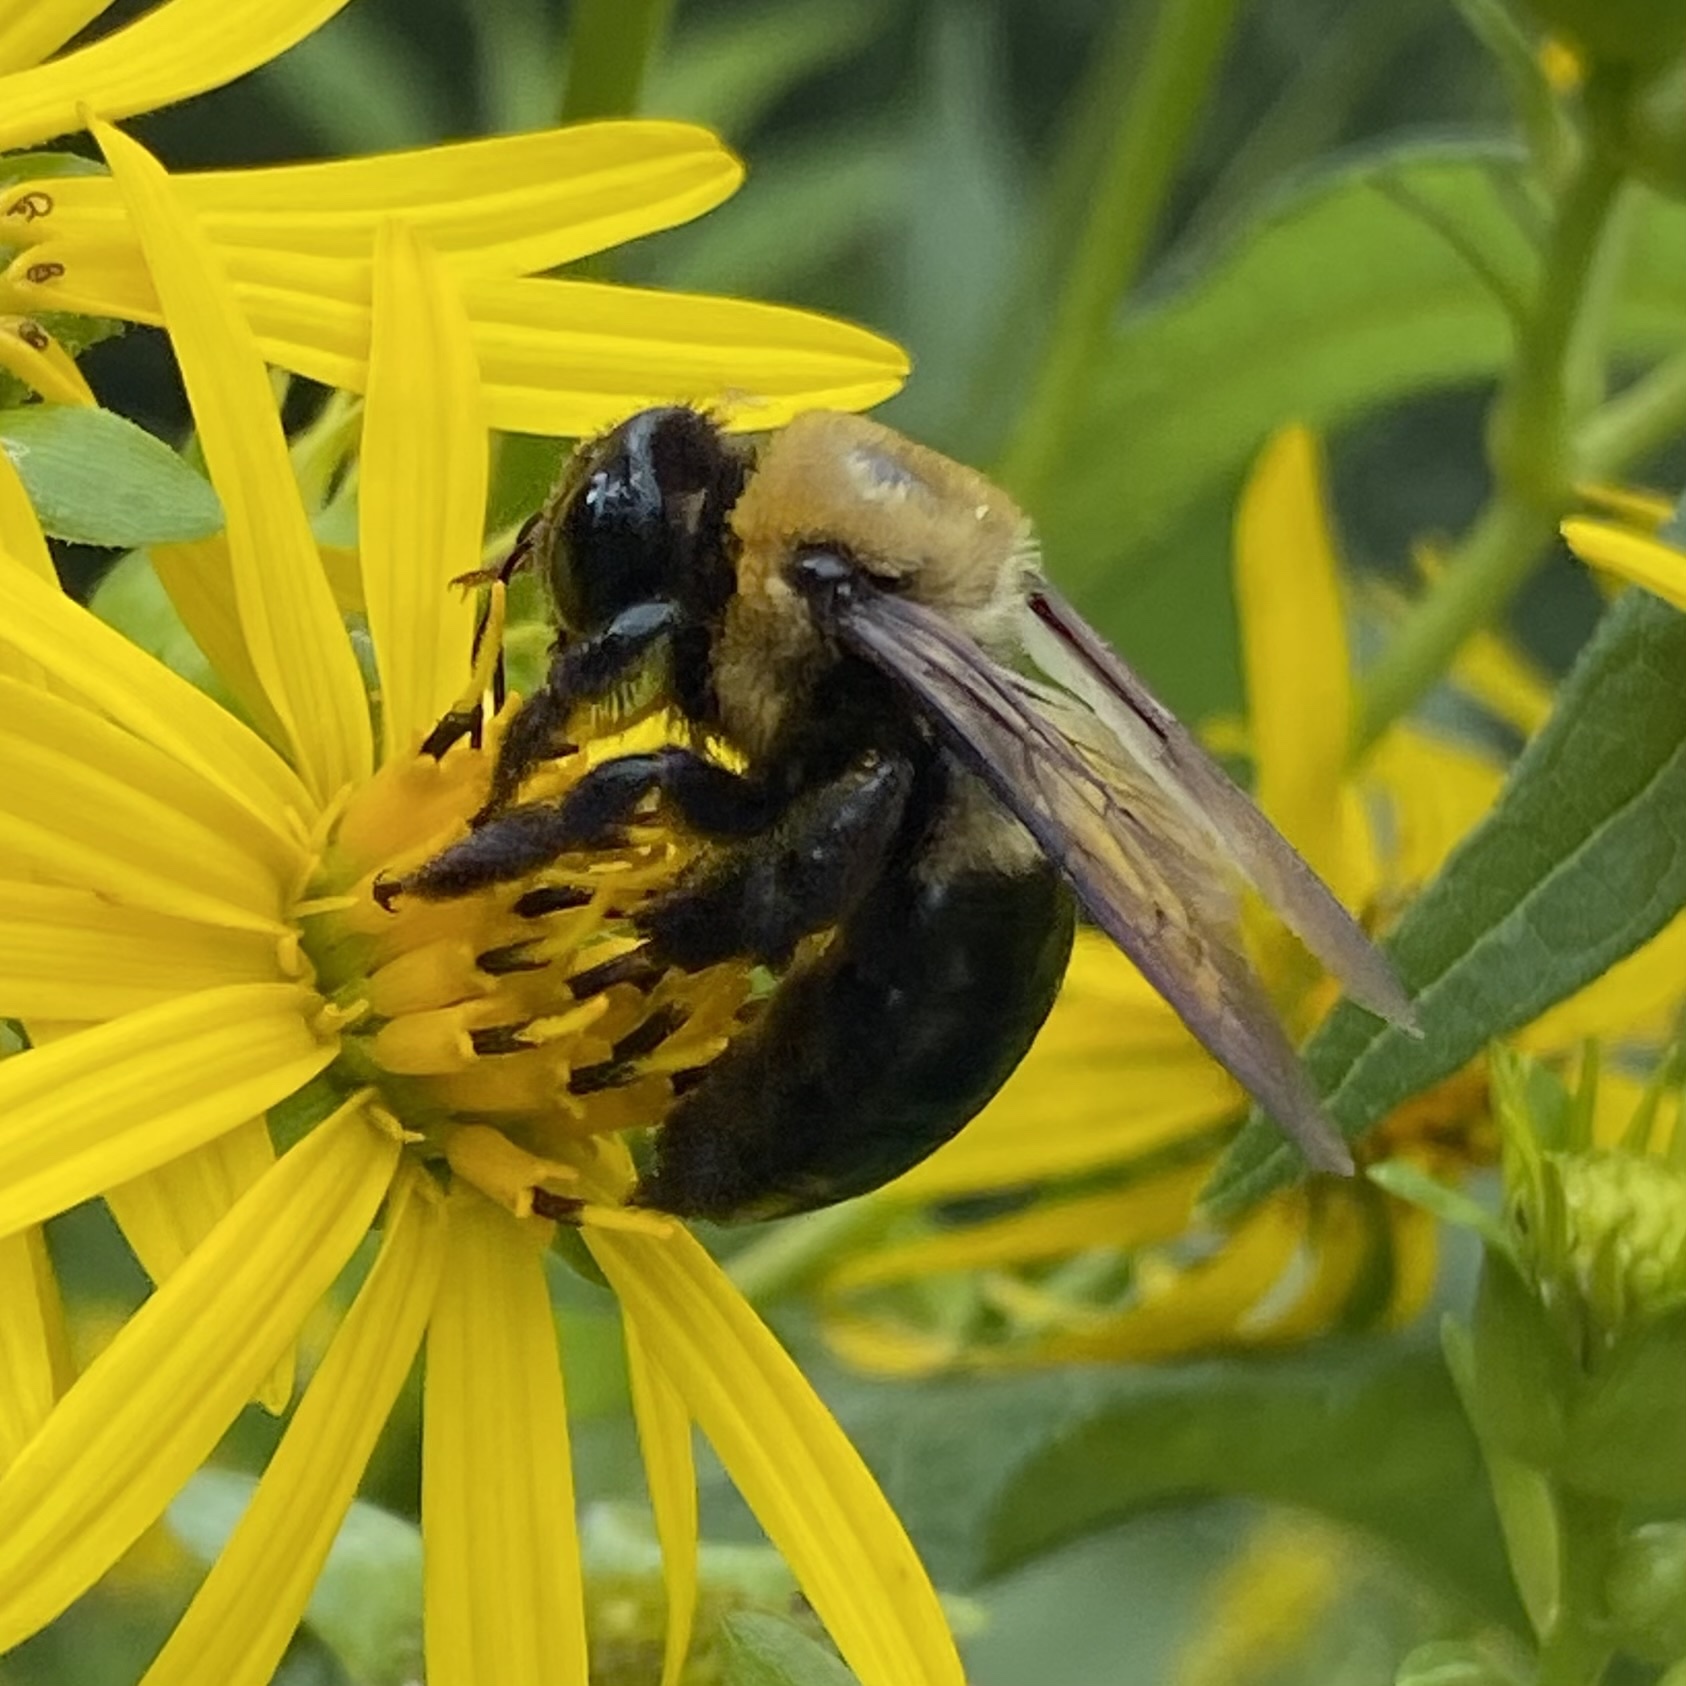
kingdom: Animalia
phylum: Arthropoda
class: Insecta
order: Hymenoptera
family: Apidae
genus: Xylocopa
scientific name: Xylocopa virginica
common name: Carpenter bee
